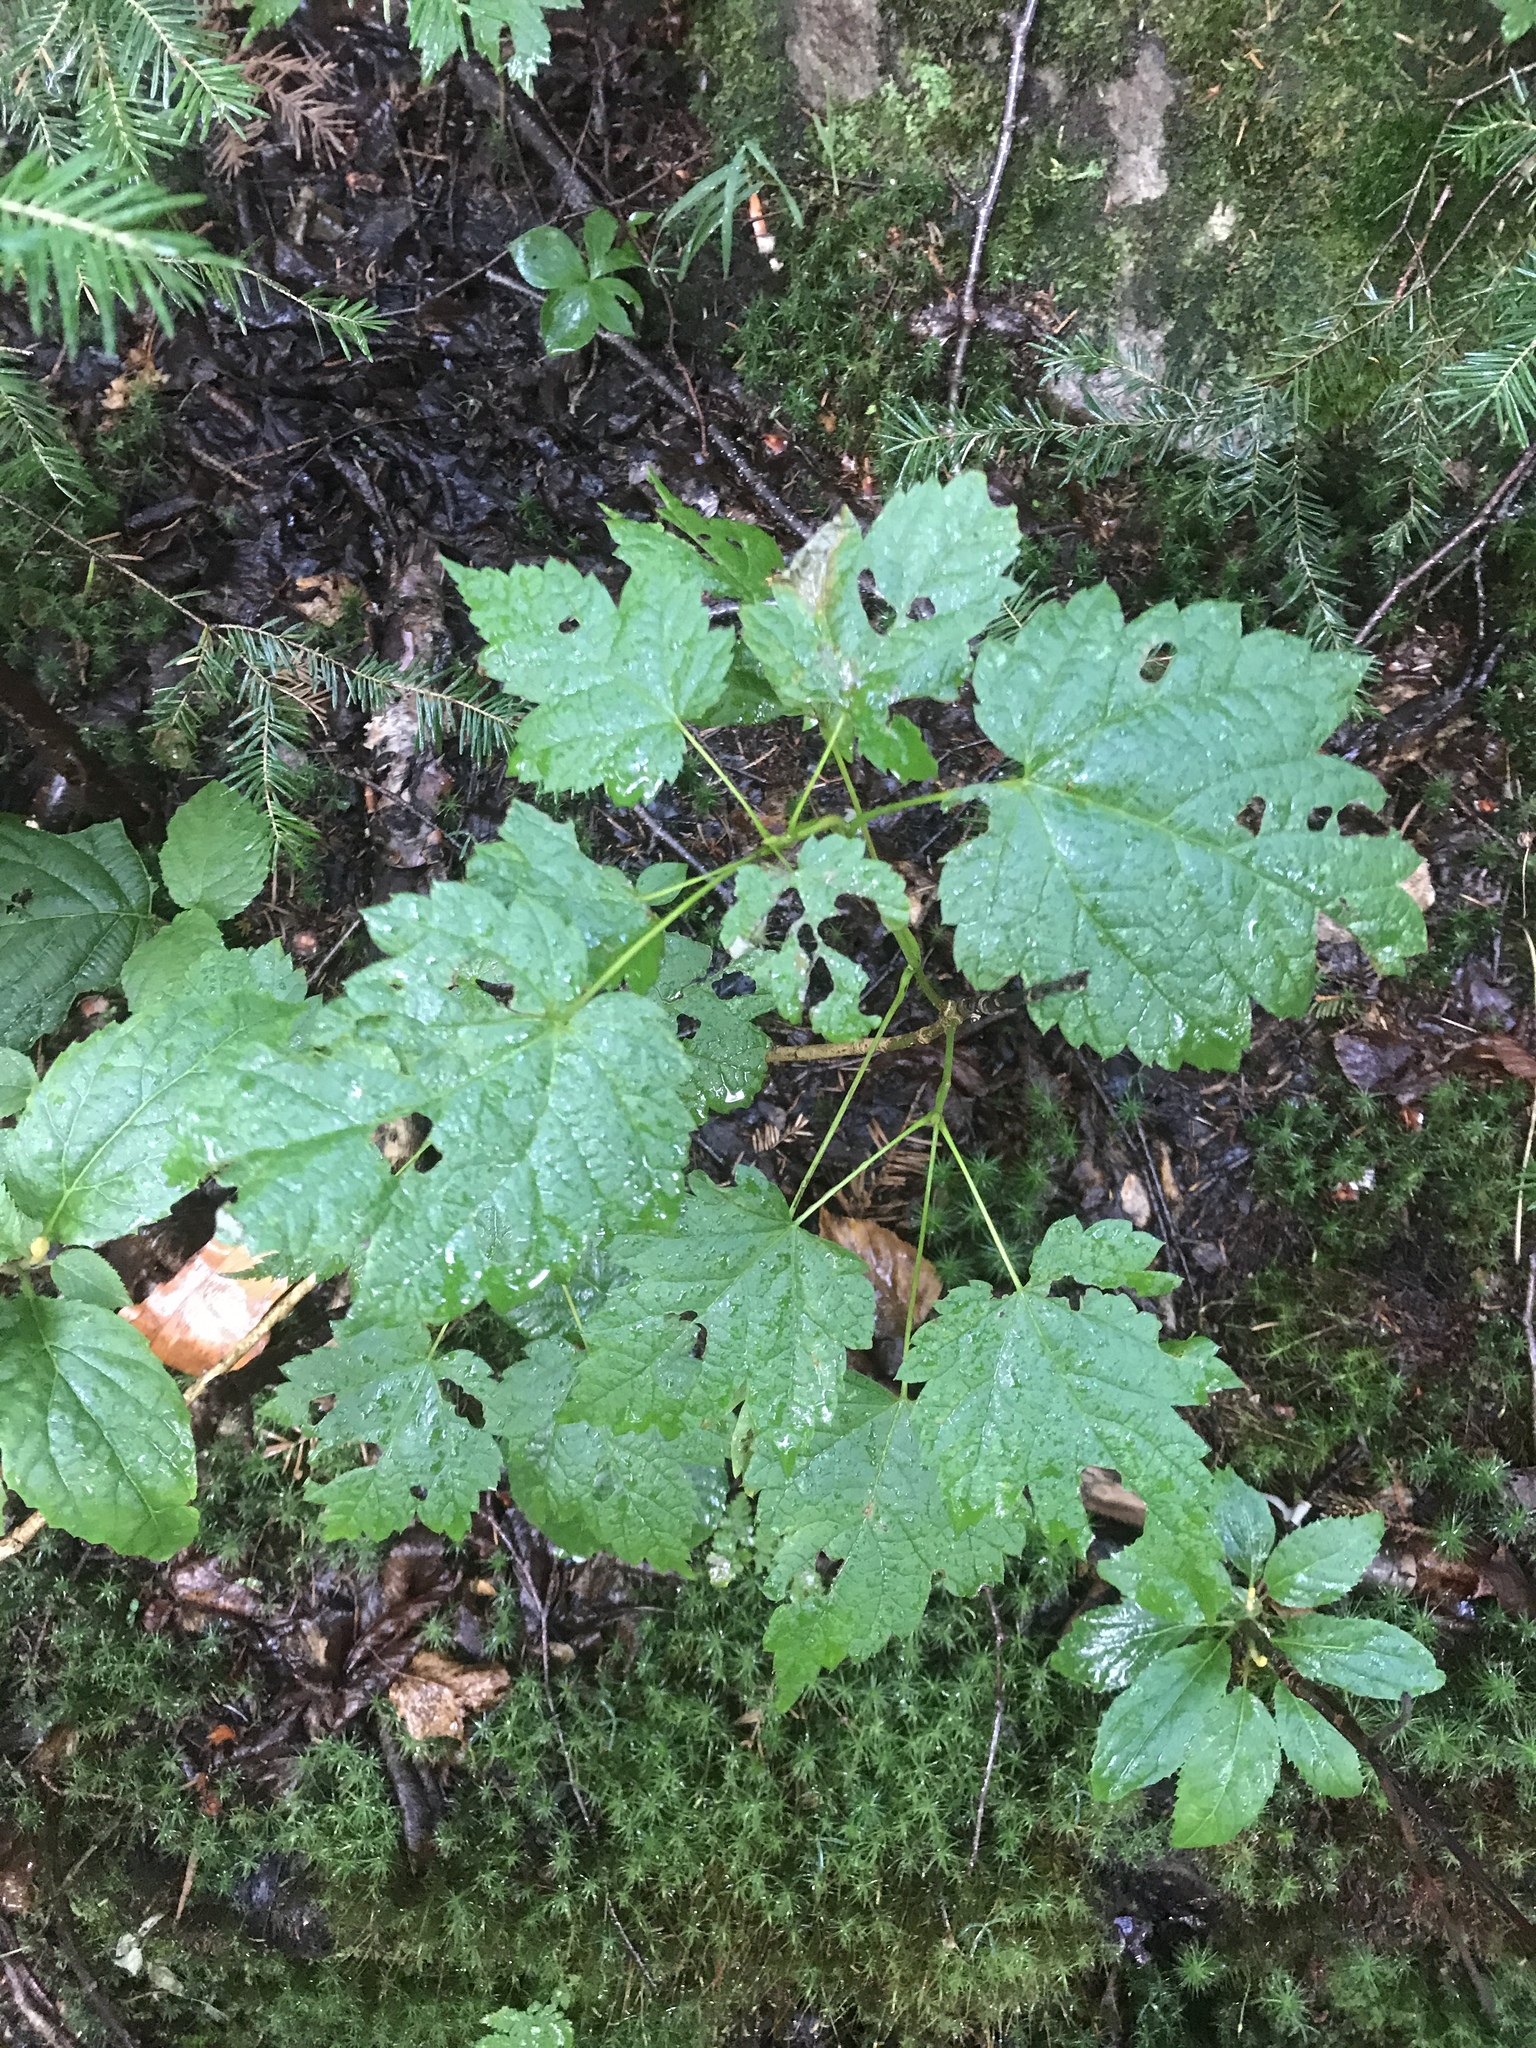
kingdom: Plantae
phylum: Tracheophyta
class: Magnoliopsida
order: Sapindales
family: Sapindaceae
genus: Acer
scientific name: Acer spicatum
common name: Mountain maple
